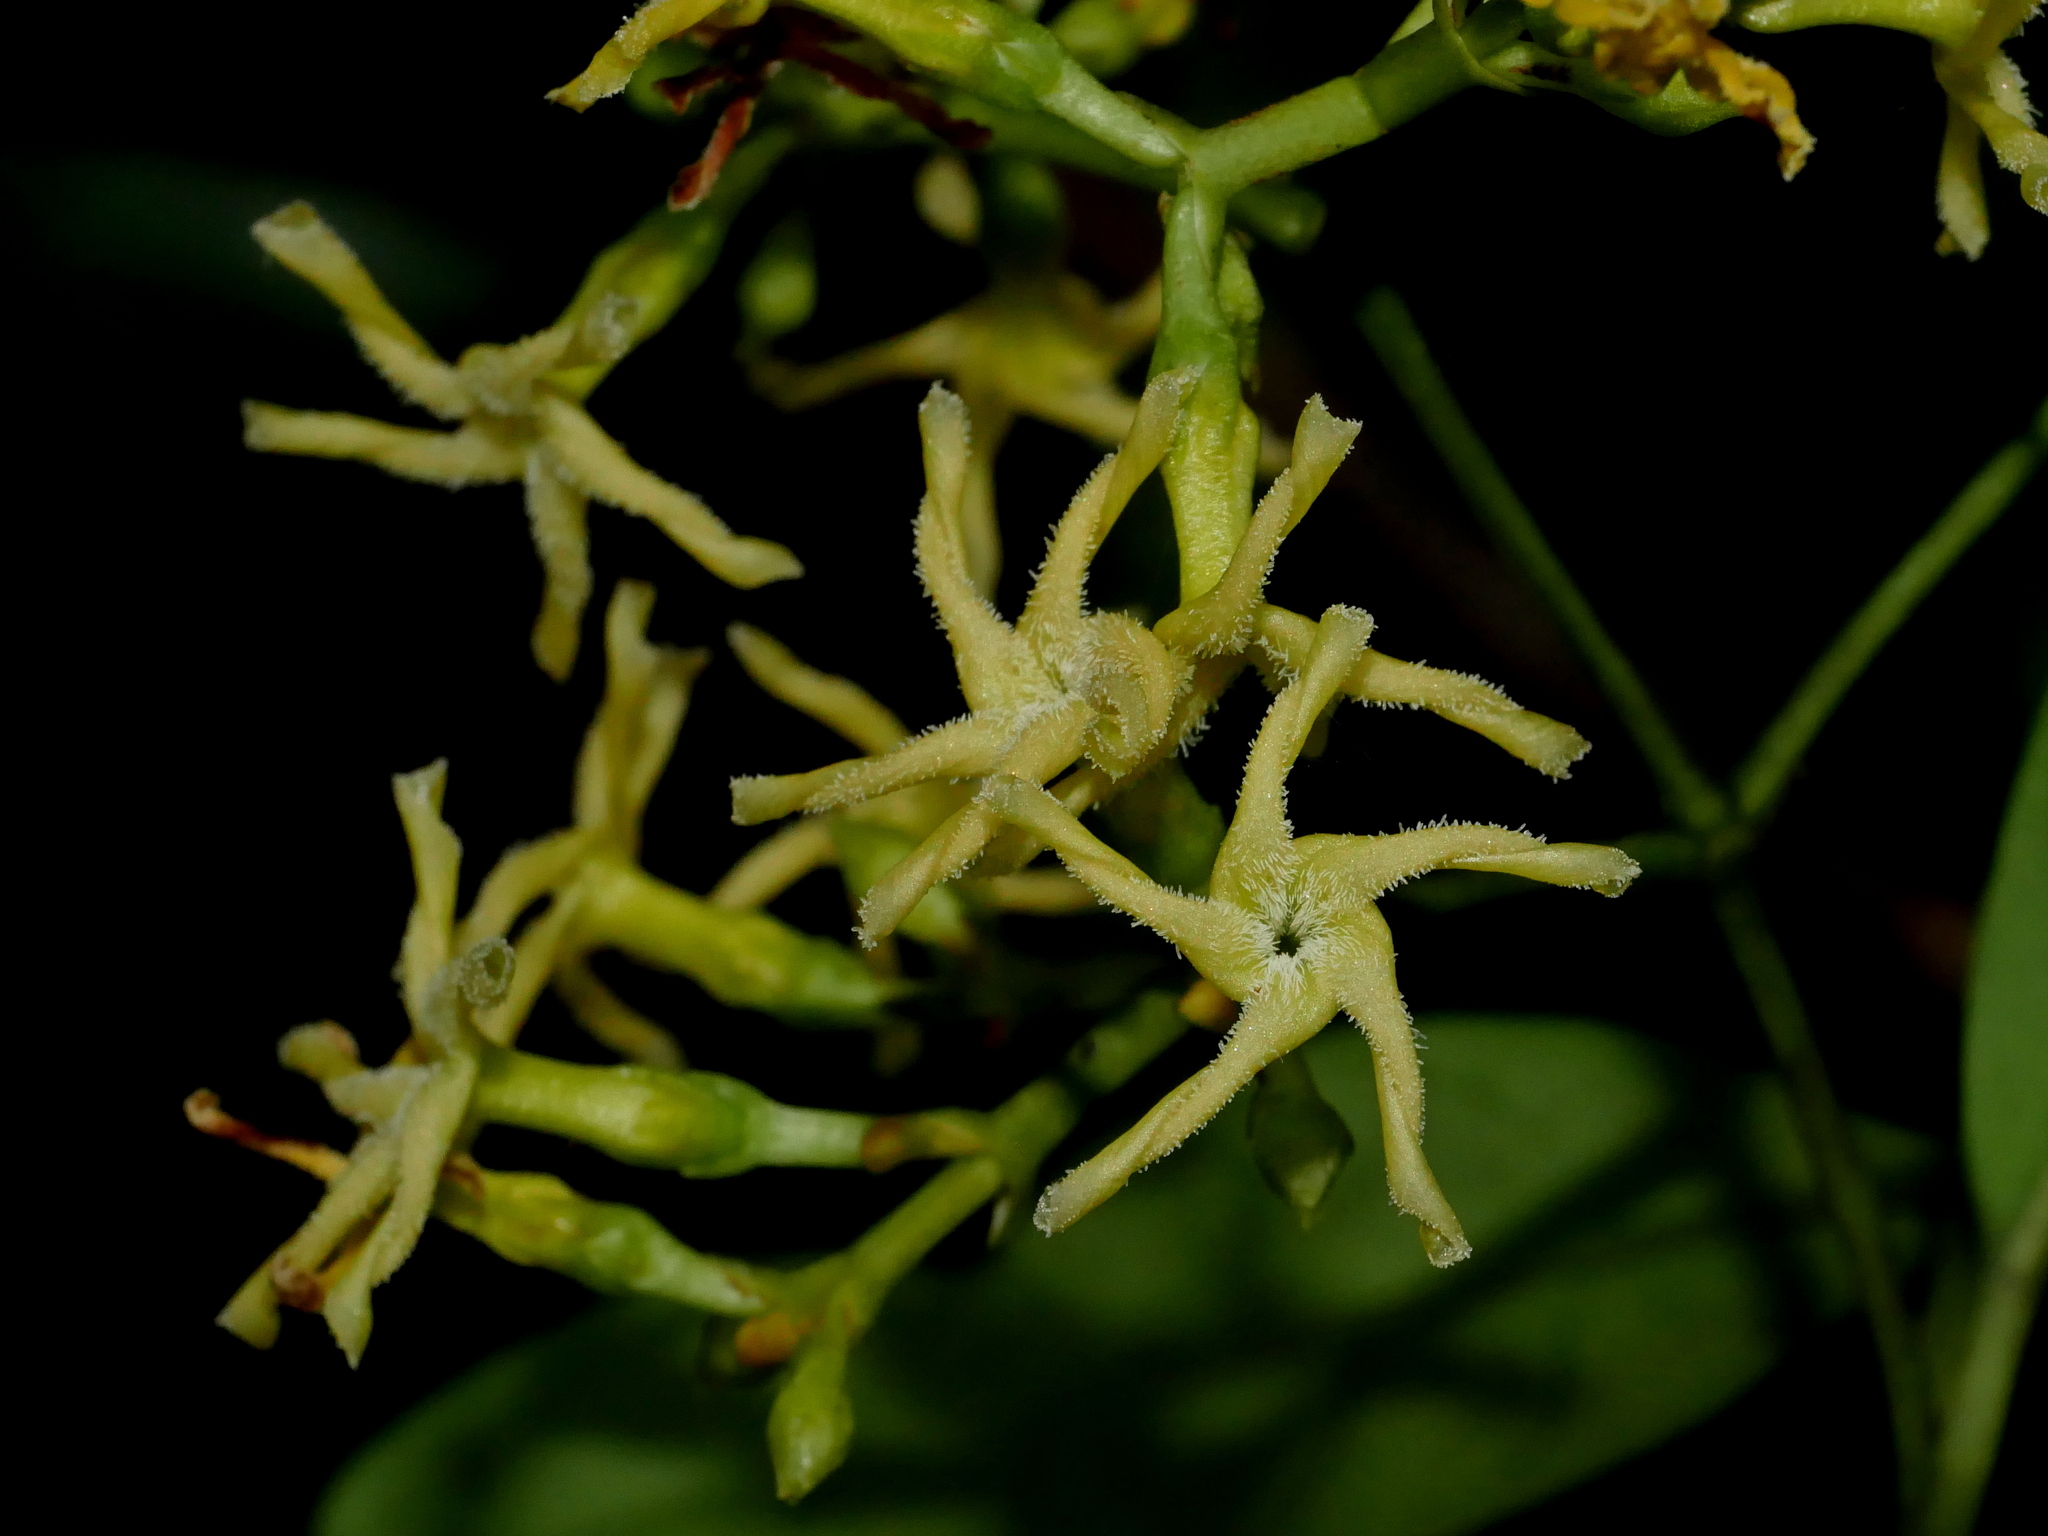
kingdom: Plantae
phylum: Tracheophyta
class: Magnoliopsida
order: Gentianales
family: Apocynaceae
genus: Anodendron
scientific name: Anodendron affine
